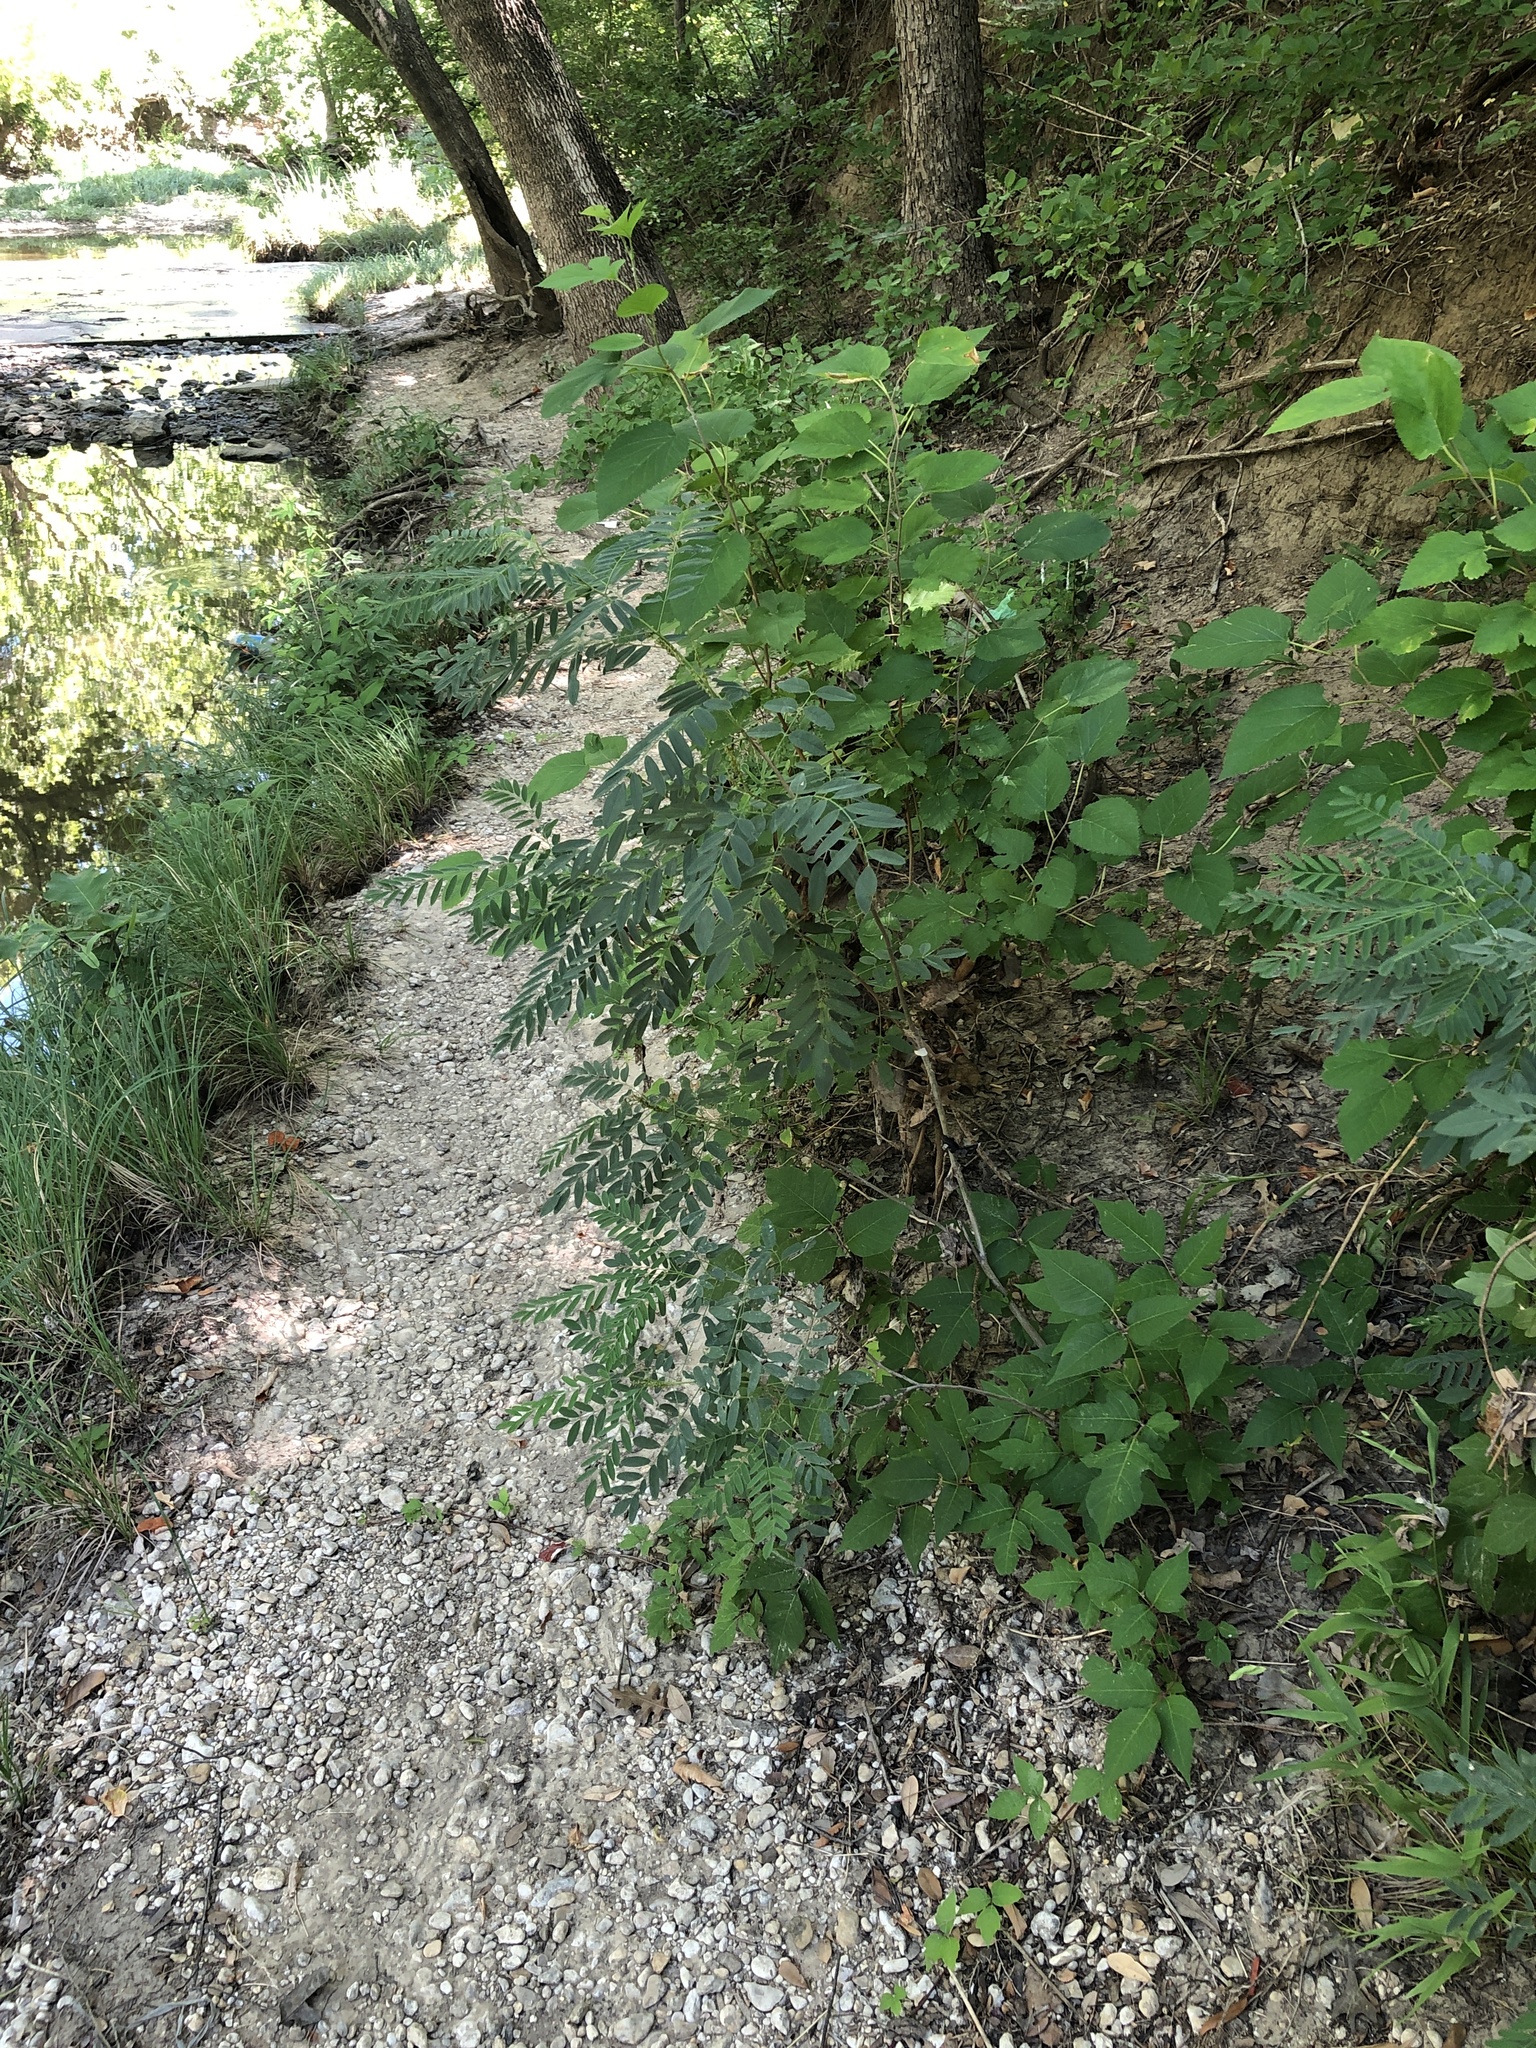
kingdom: Plantae
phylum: Tracheophyta
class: Magnoliopsida
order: Fabales
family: Fabaceae
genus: Amorpha
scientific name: Amorpha fruticosa
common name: False indigo
